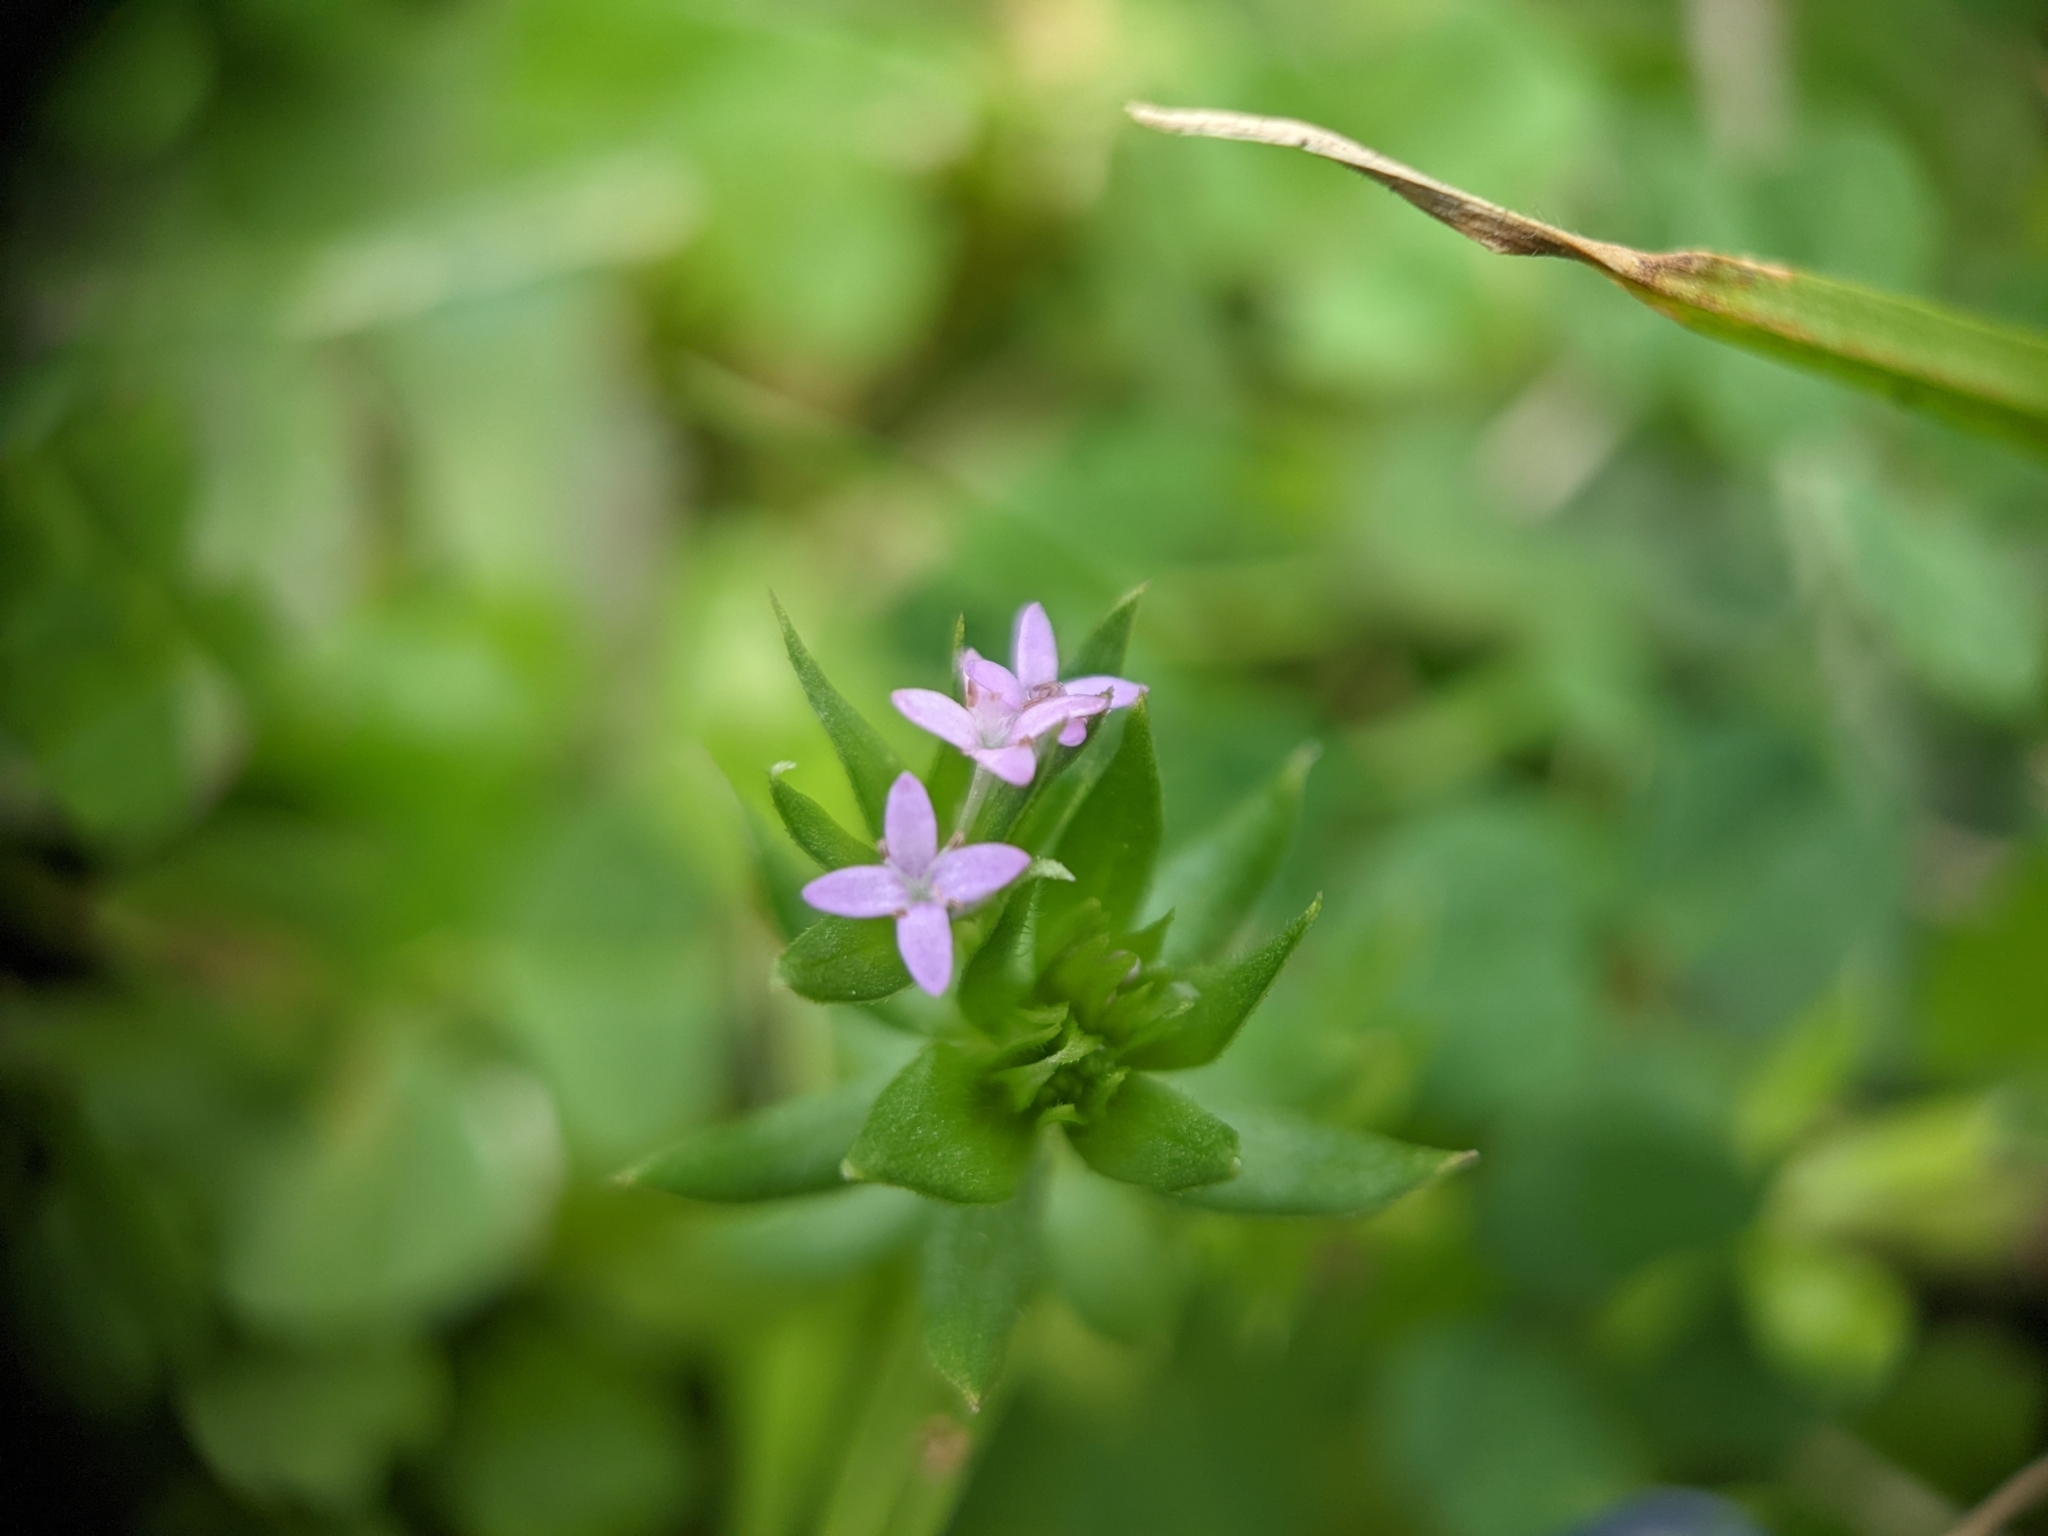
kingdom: Plantae
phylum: Tracheophyta
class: Magnoliopsida
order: Gentianales
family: Rubiaceae
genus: Sherardia
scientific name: Sherardia arvensis
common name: Field madder
